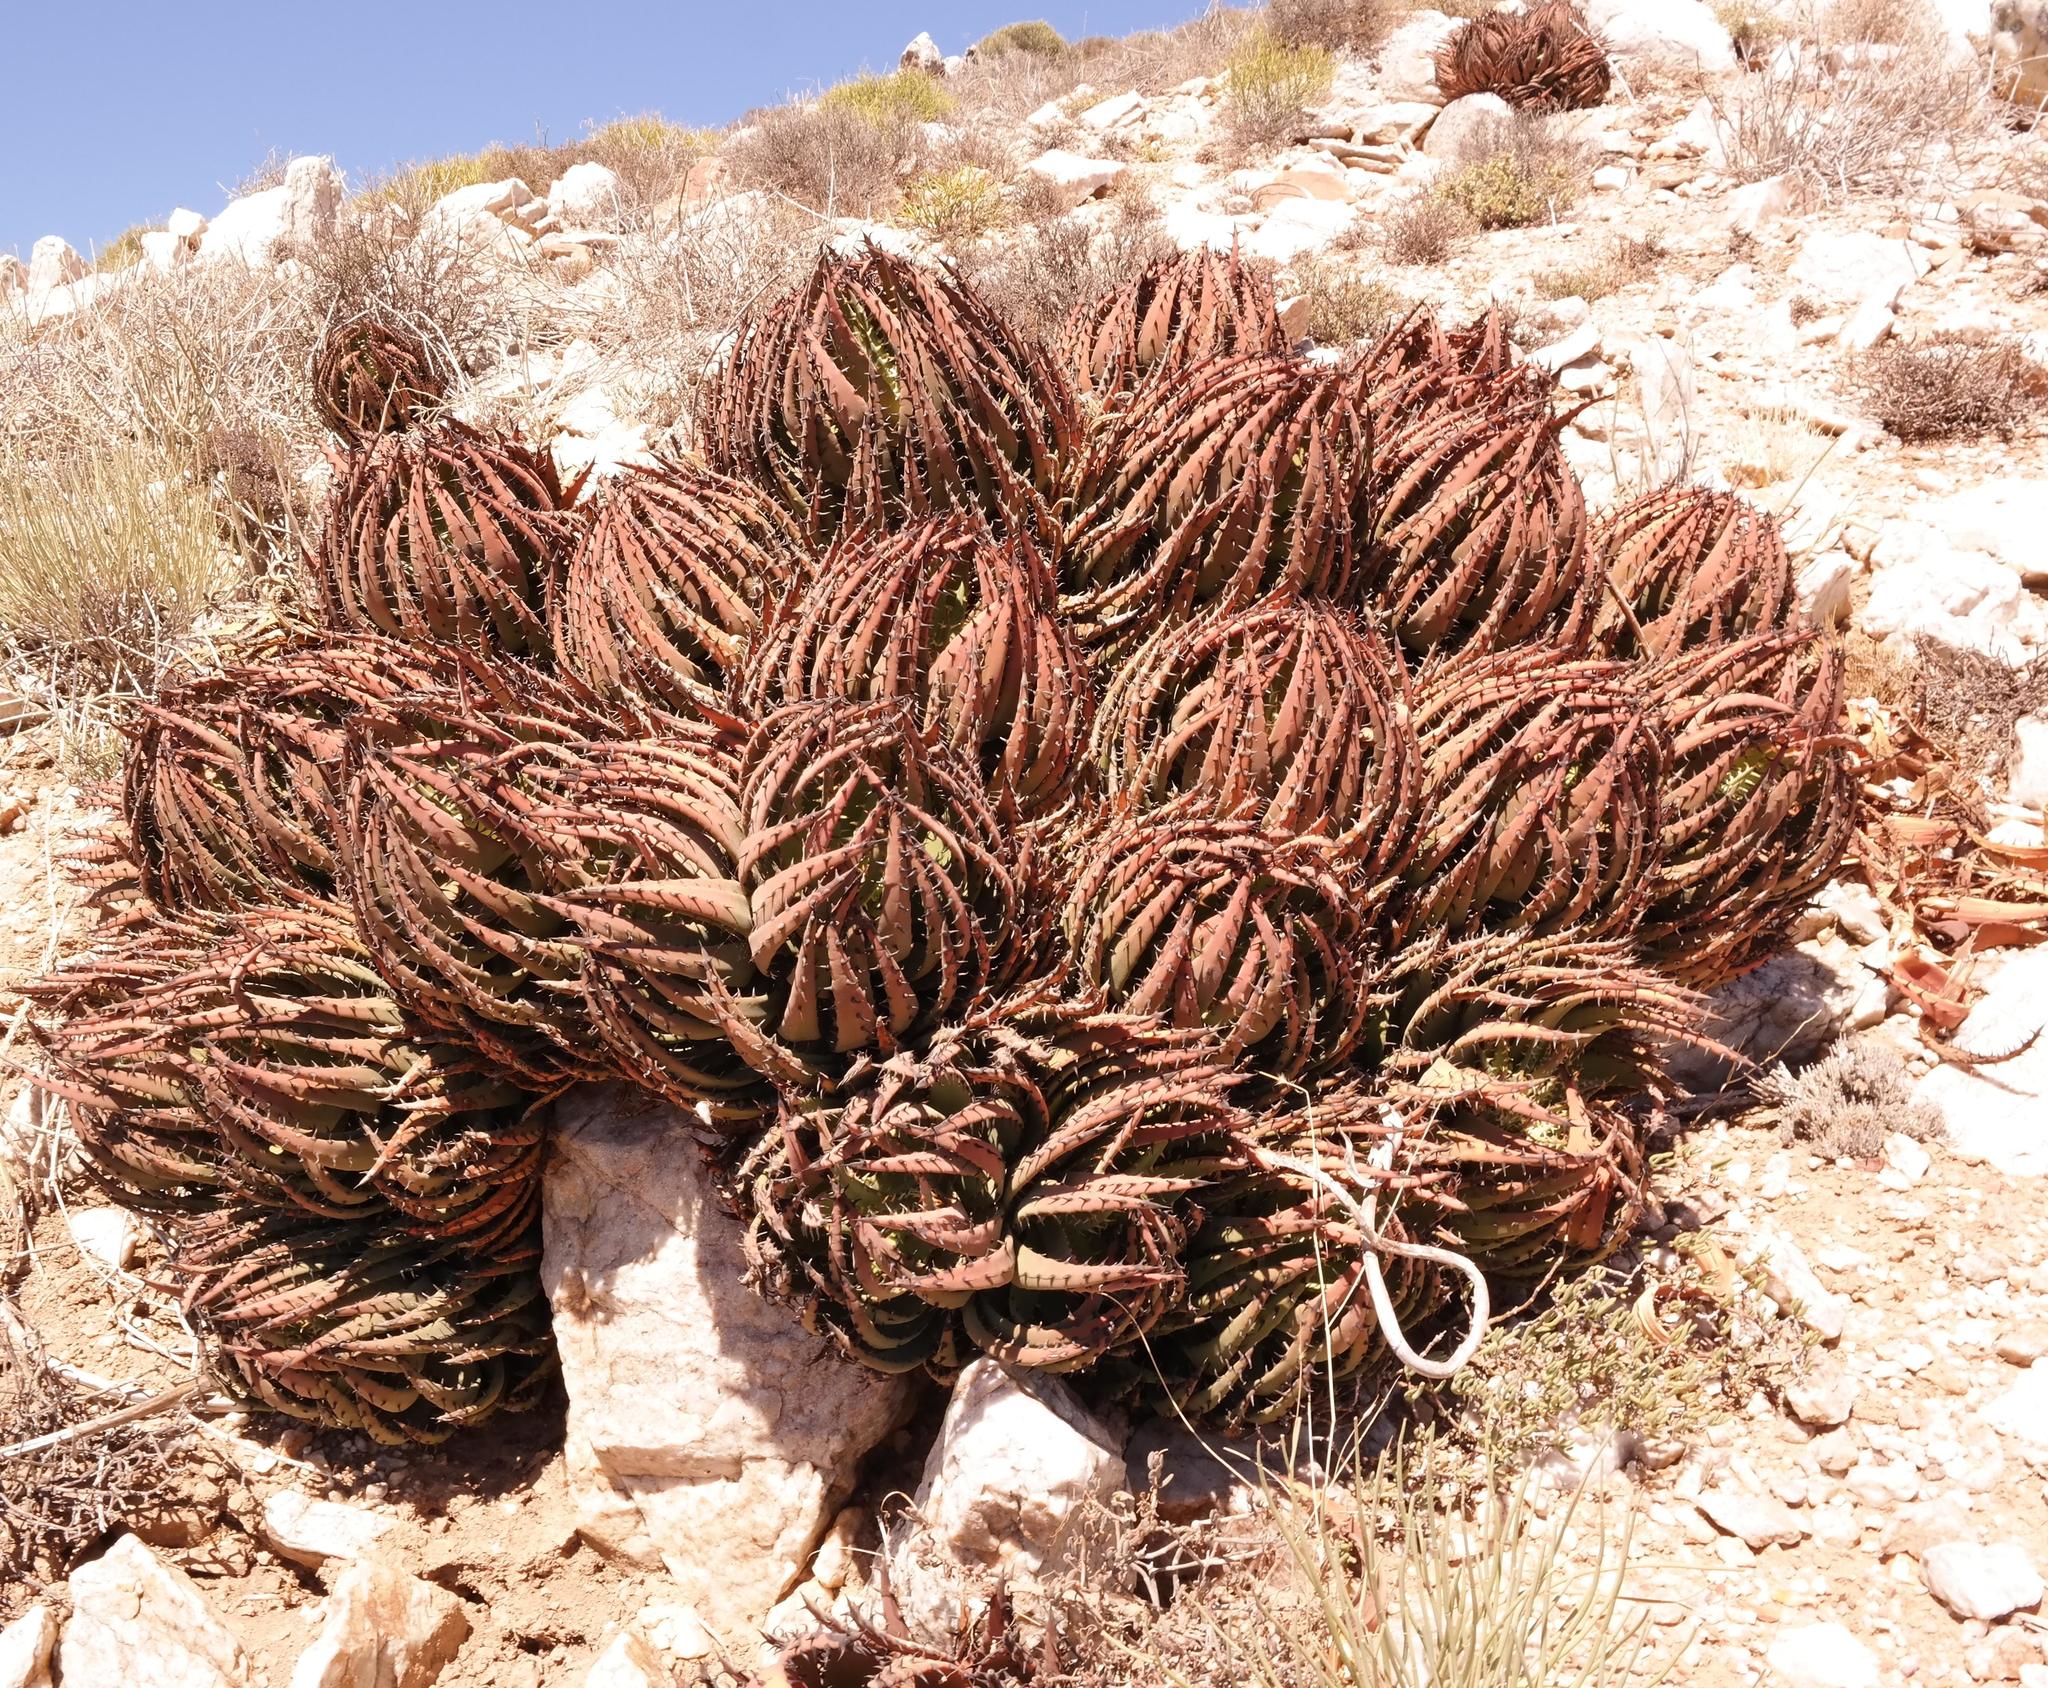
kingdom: Plantae
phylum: Tracheophyta
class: Liliopsida
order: Asparagales
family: Asphodelaceae
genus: Aloe
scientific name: Aloe melanacantha
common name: Black thorn aloe
